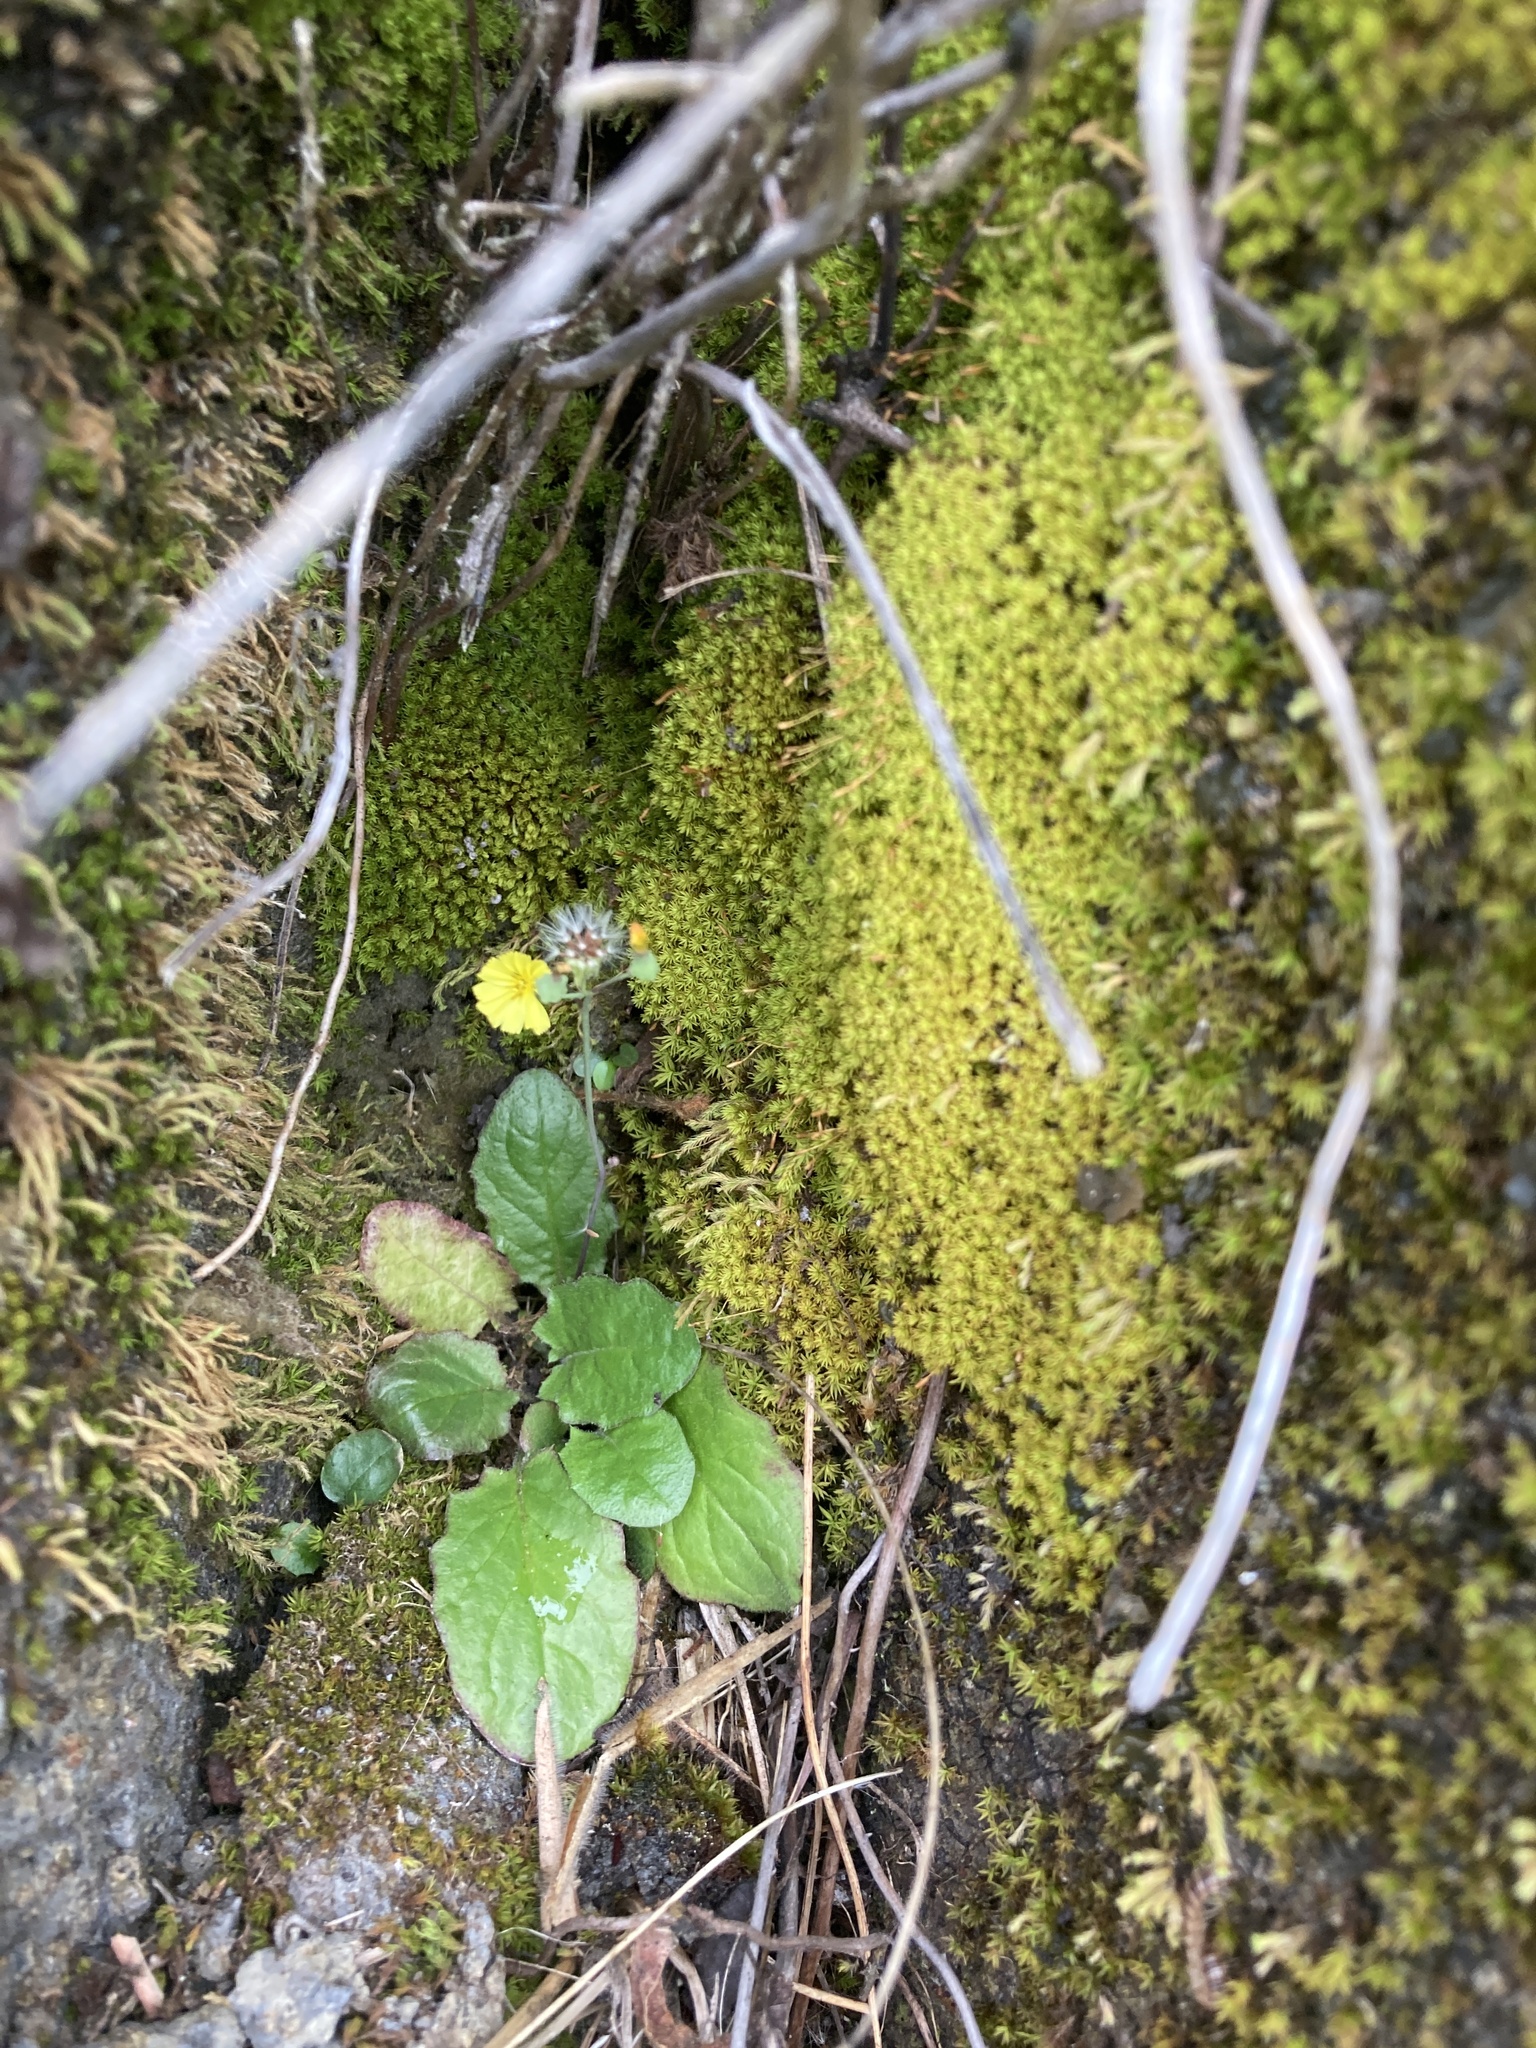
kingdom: Plantae
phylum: Tracheophyta
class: Magnoliopsida
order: Asterales
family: Asteraceae
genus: Youngia
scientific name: Youngia japonica
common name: Oriental false hawksbeard
